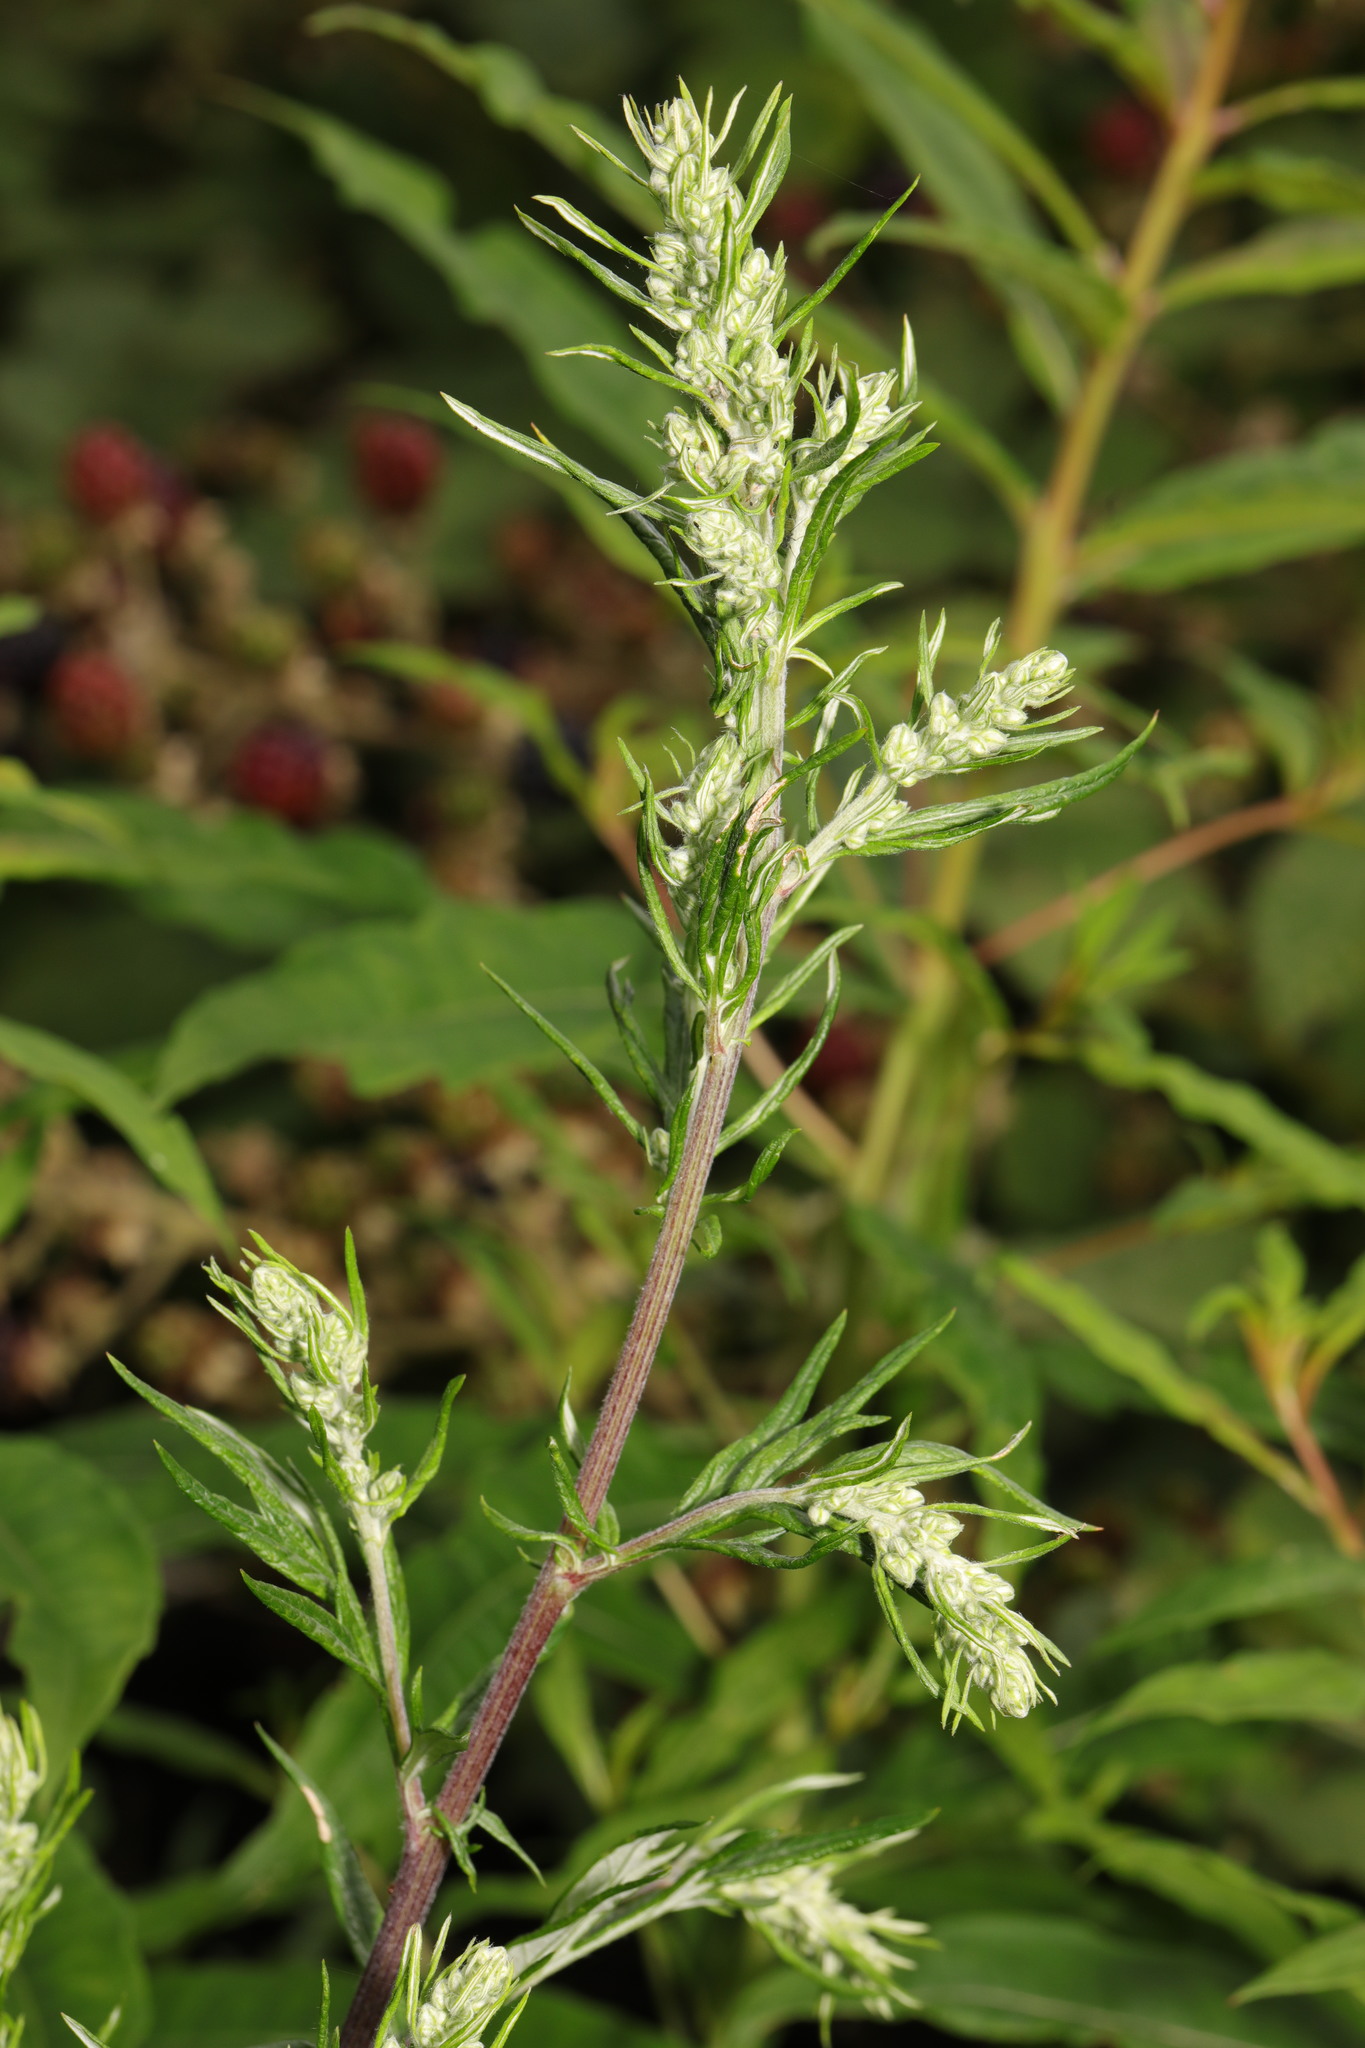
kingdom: Plantae
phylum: Tracheophyta
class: Magnoliopsida
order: Asterales
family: Asteraceae
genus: Artemisia
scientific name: Artemisia vulgaris
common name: Mugwort
